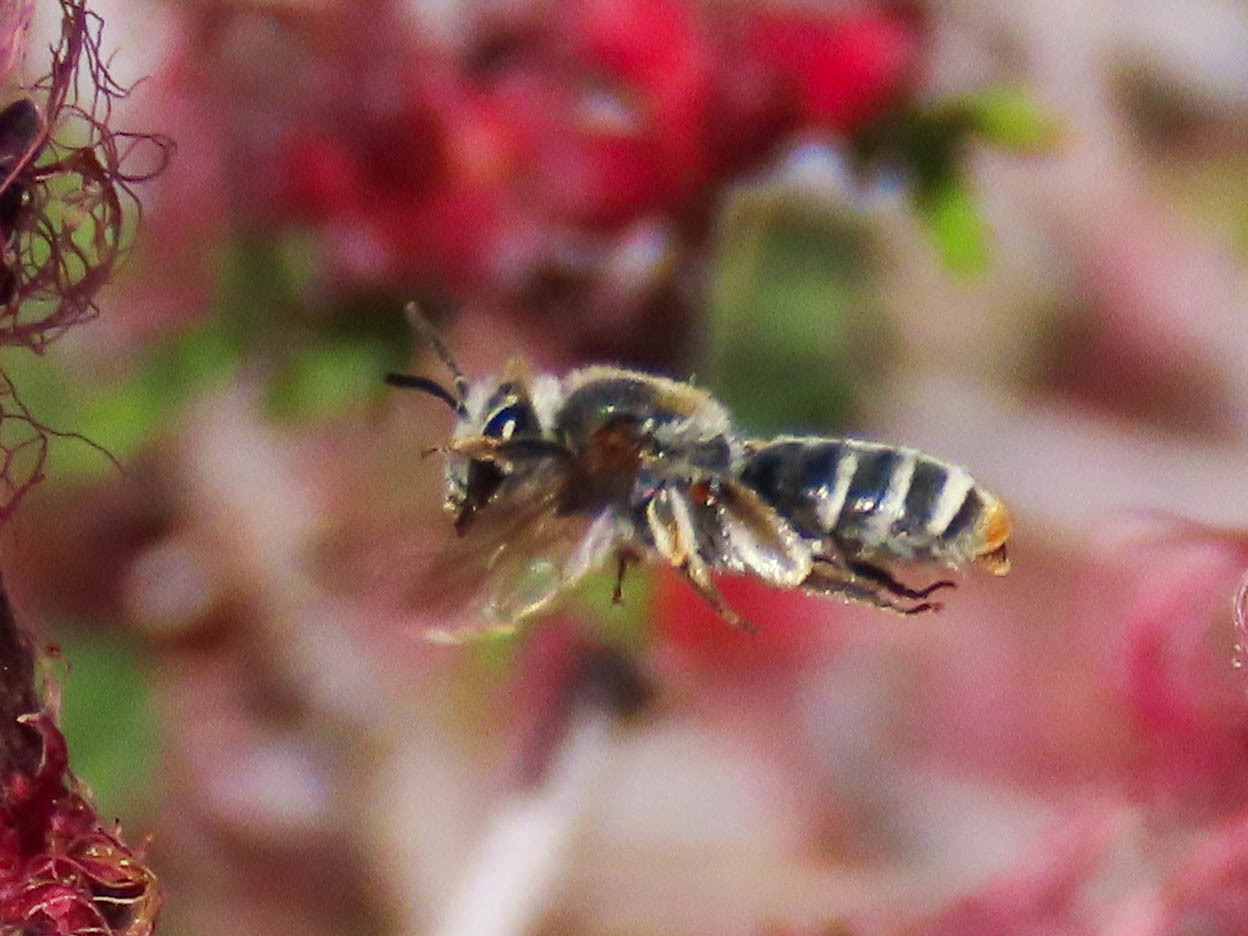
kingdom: Animalia
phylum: Arthropoda
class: Insecta
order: Hymenoptera
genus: Plastandrena
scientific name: Plastandrena
